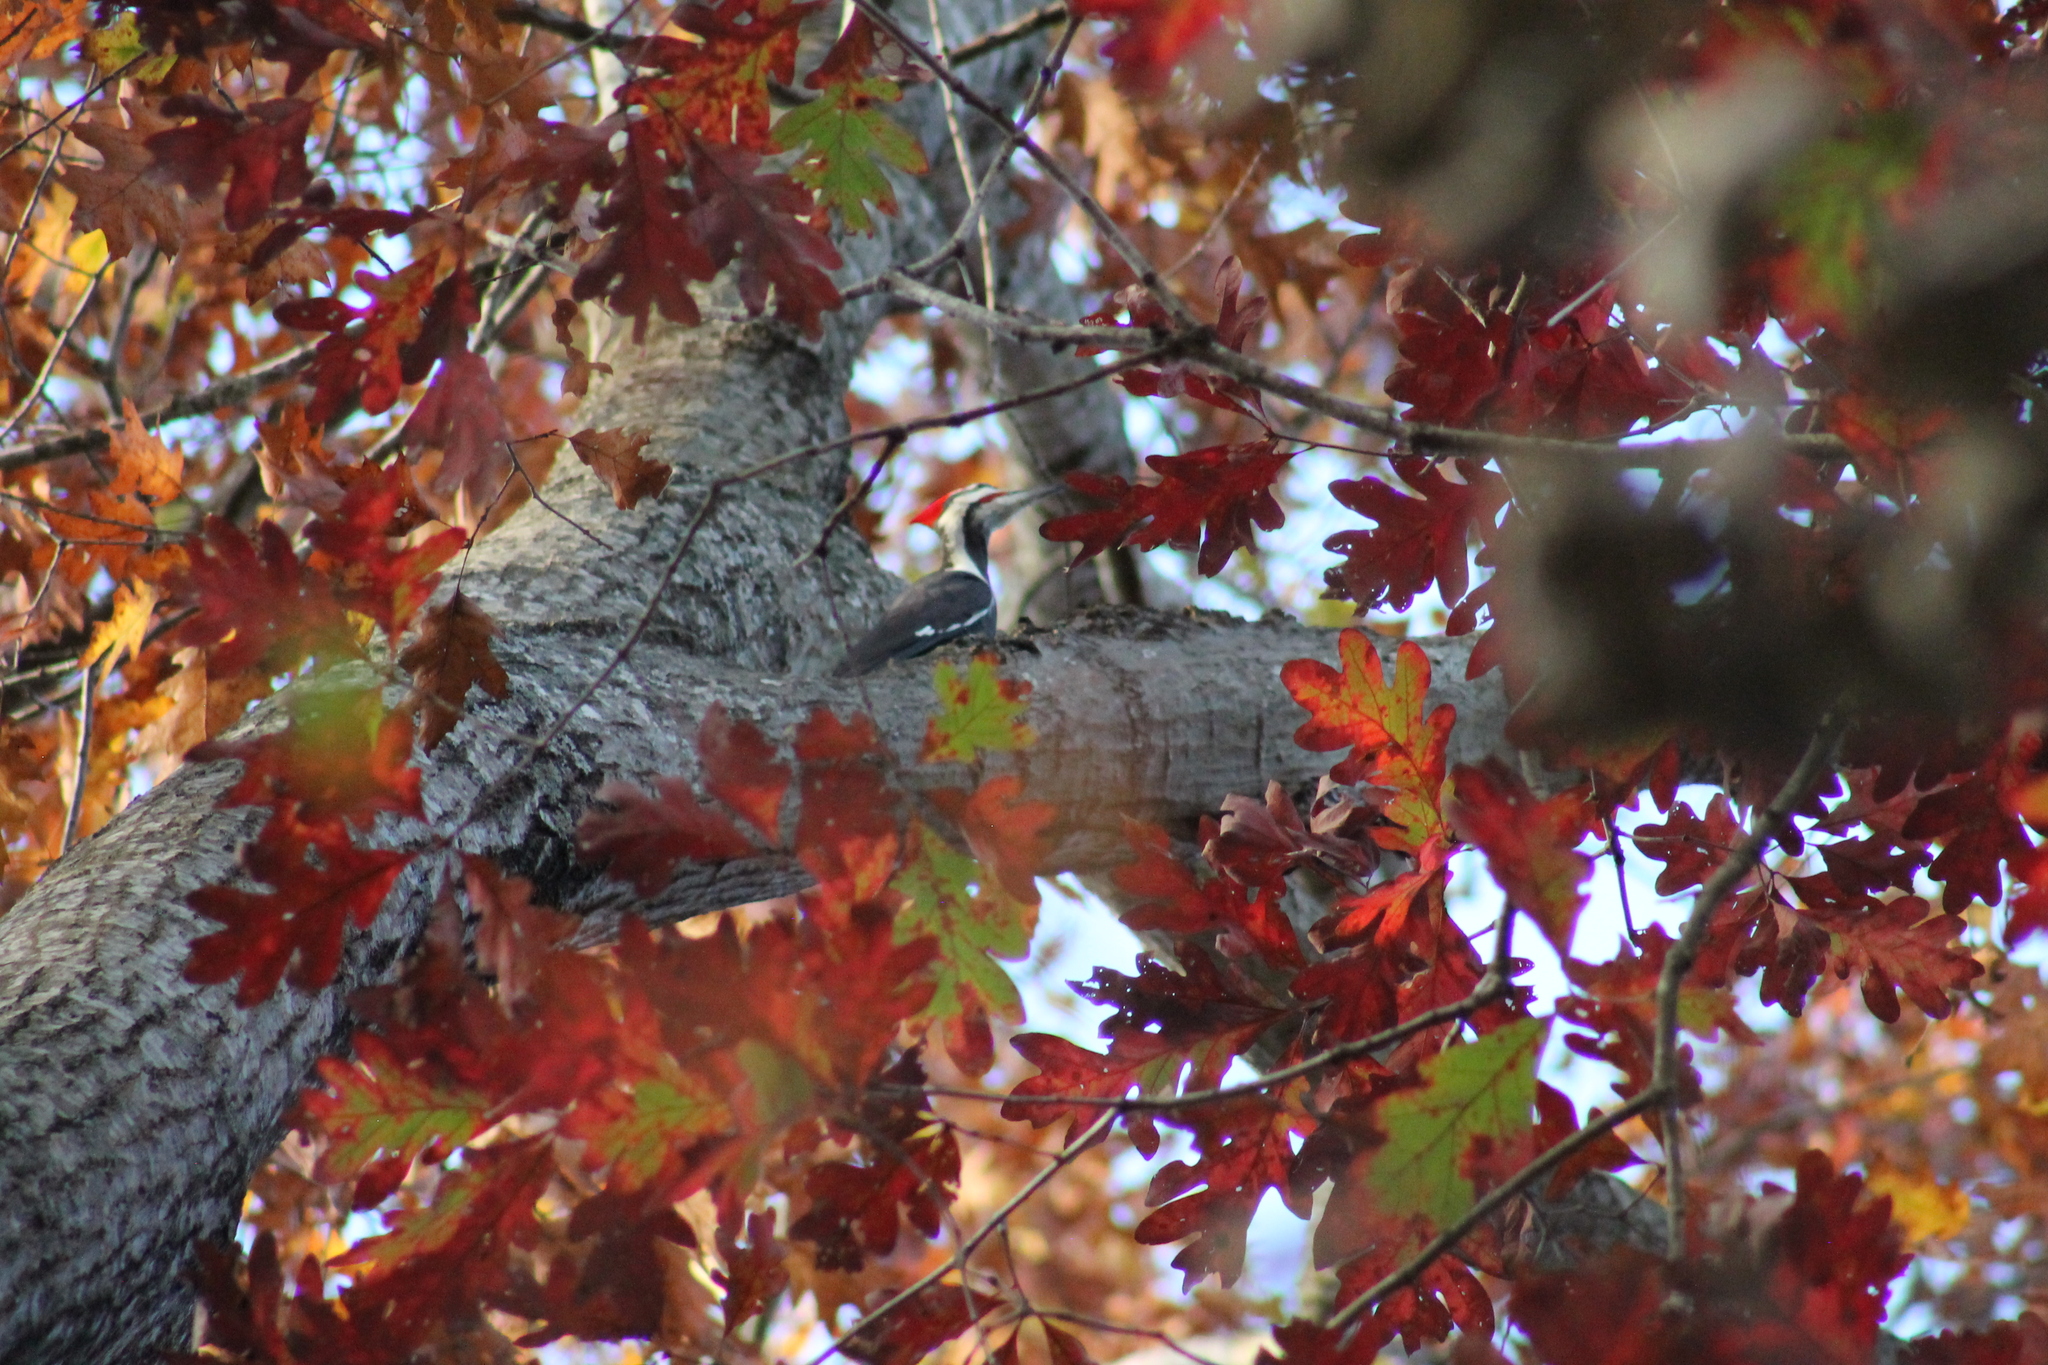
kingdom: Animalia
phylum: Chordata
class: Aves
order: Piciformes
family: Picidae
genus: Dryocopus
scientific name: Dryocopus pileatus
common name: Pileated woodpecker
